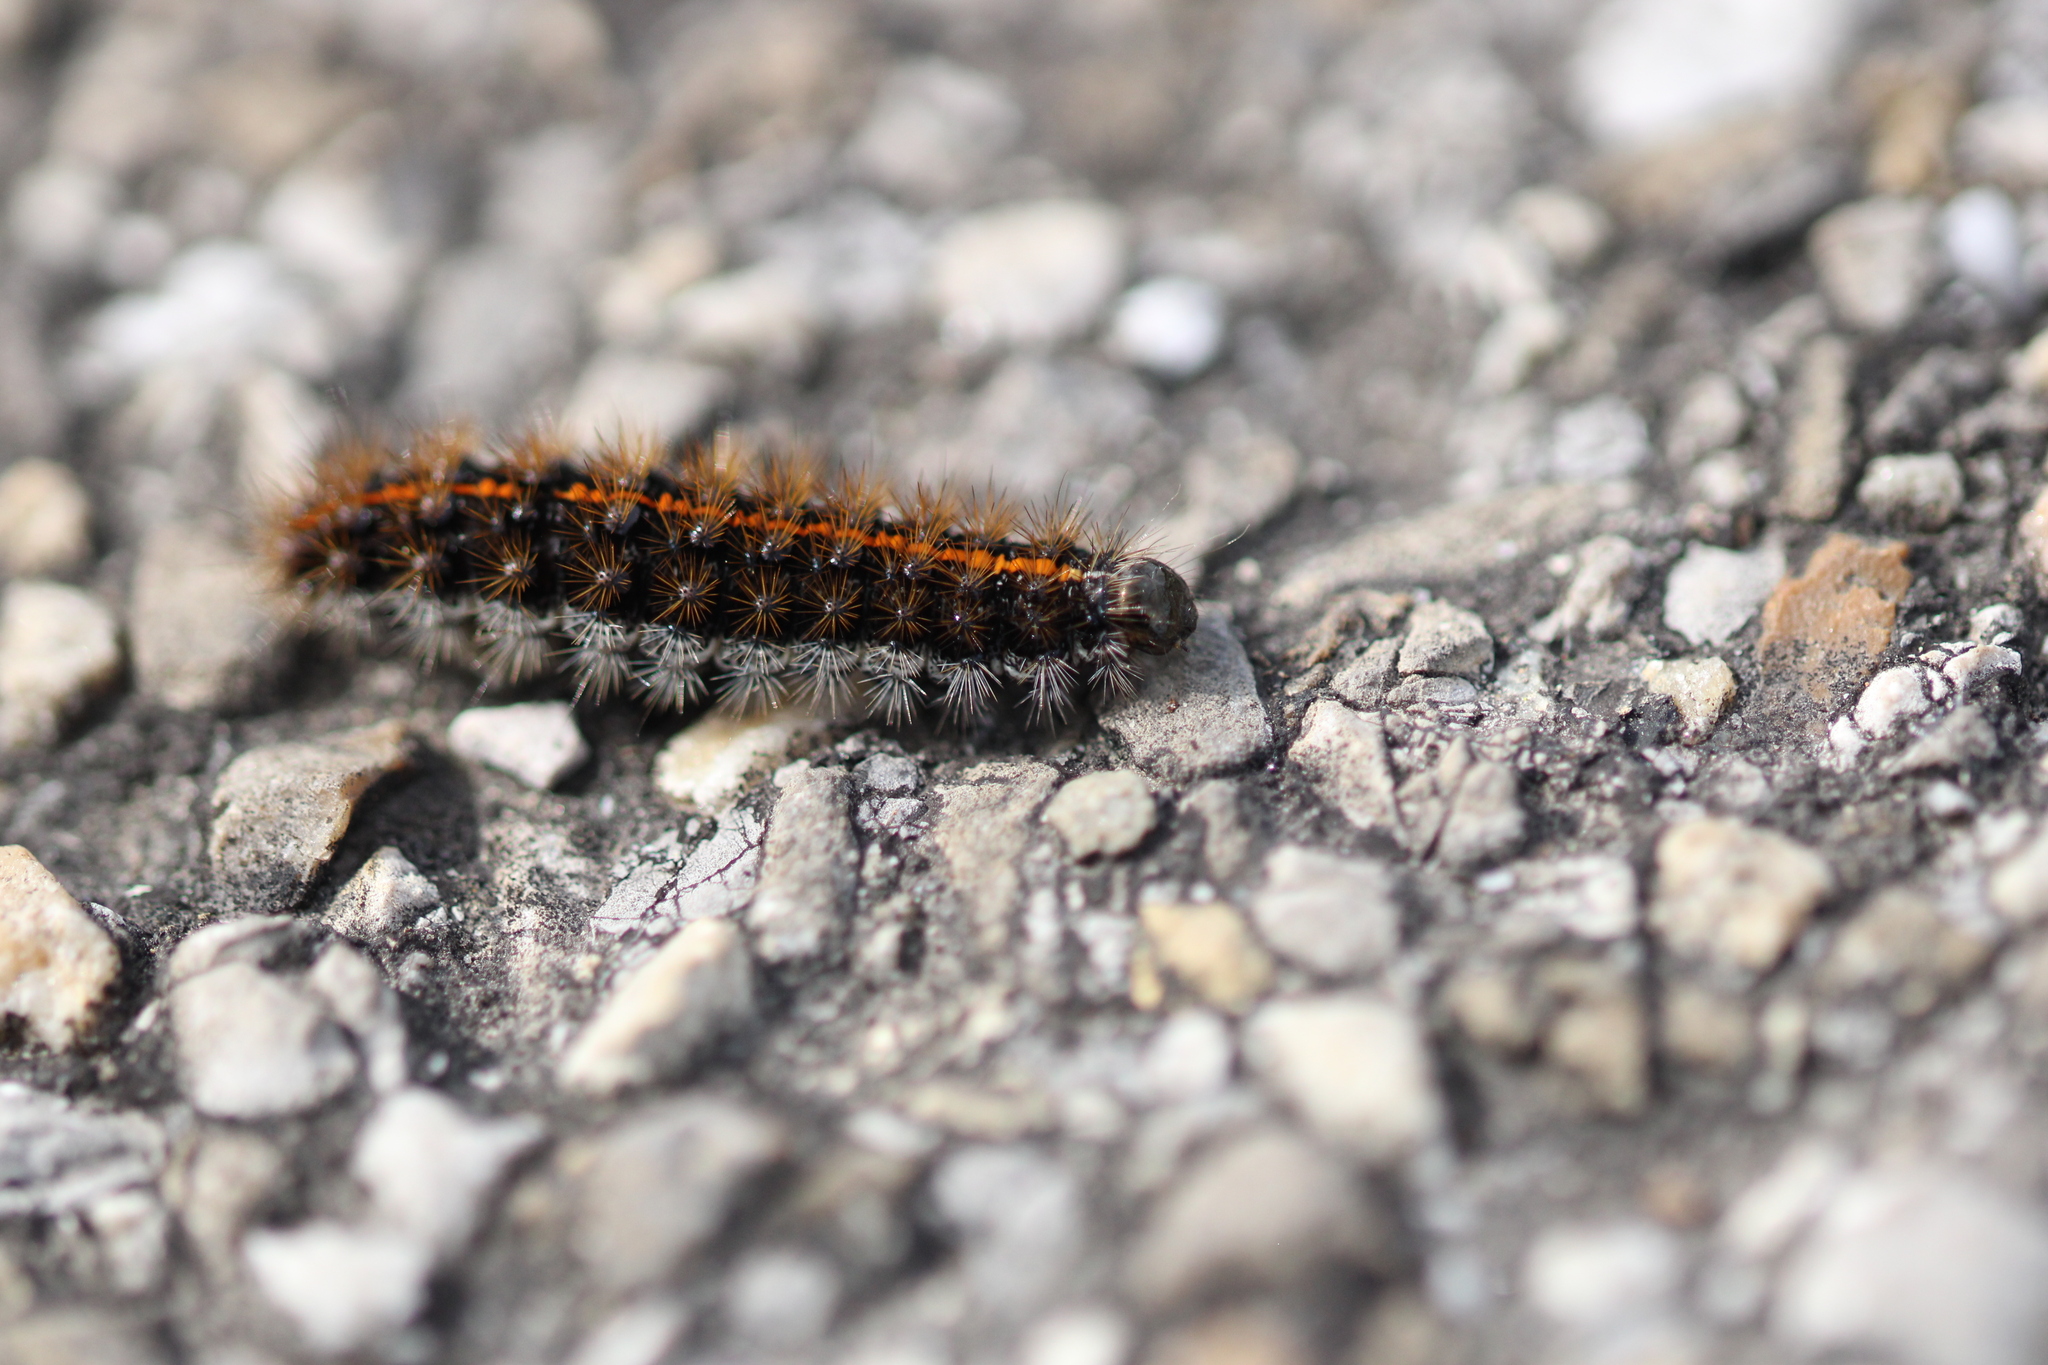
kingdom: Animalia
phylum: Arthropoda
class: Insecta
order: Lepidoptera
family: Erebidae
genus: Coscinia
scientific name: Coscinia Spiris striata
